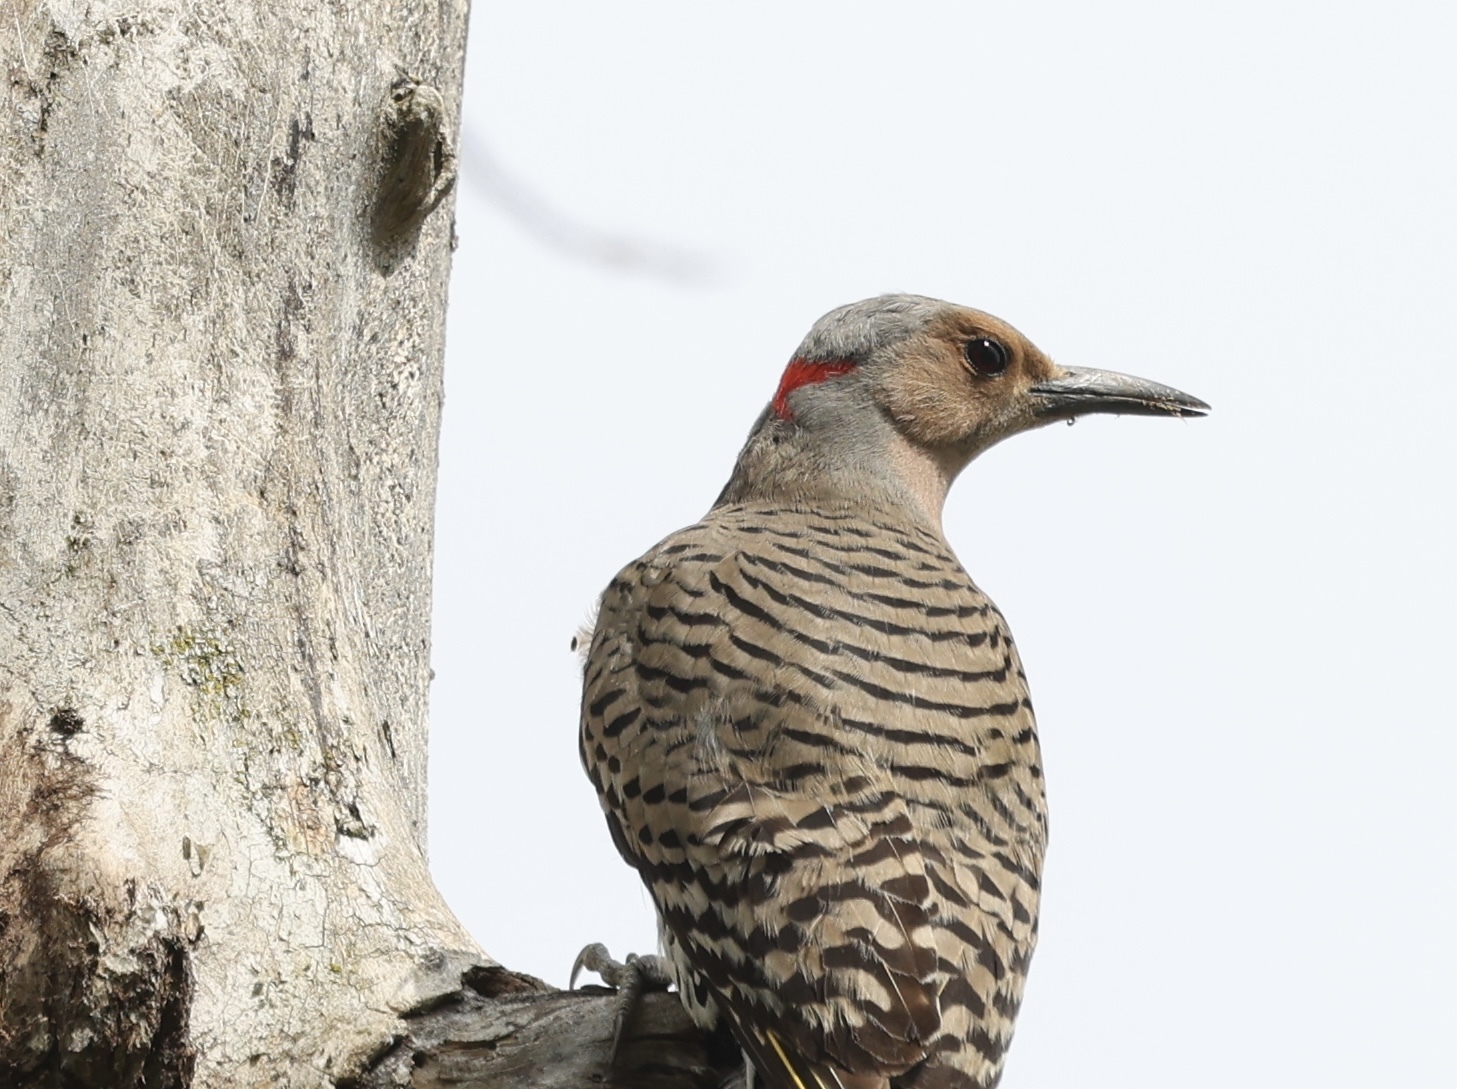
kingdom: Animalia
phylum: Chordata
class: Aves
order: Piciformes
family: Picidae
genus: Colaptes
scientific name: Colaptes auratus
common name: Northern flicker
